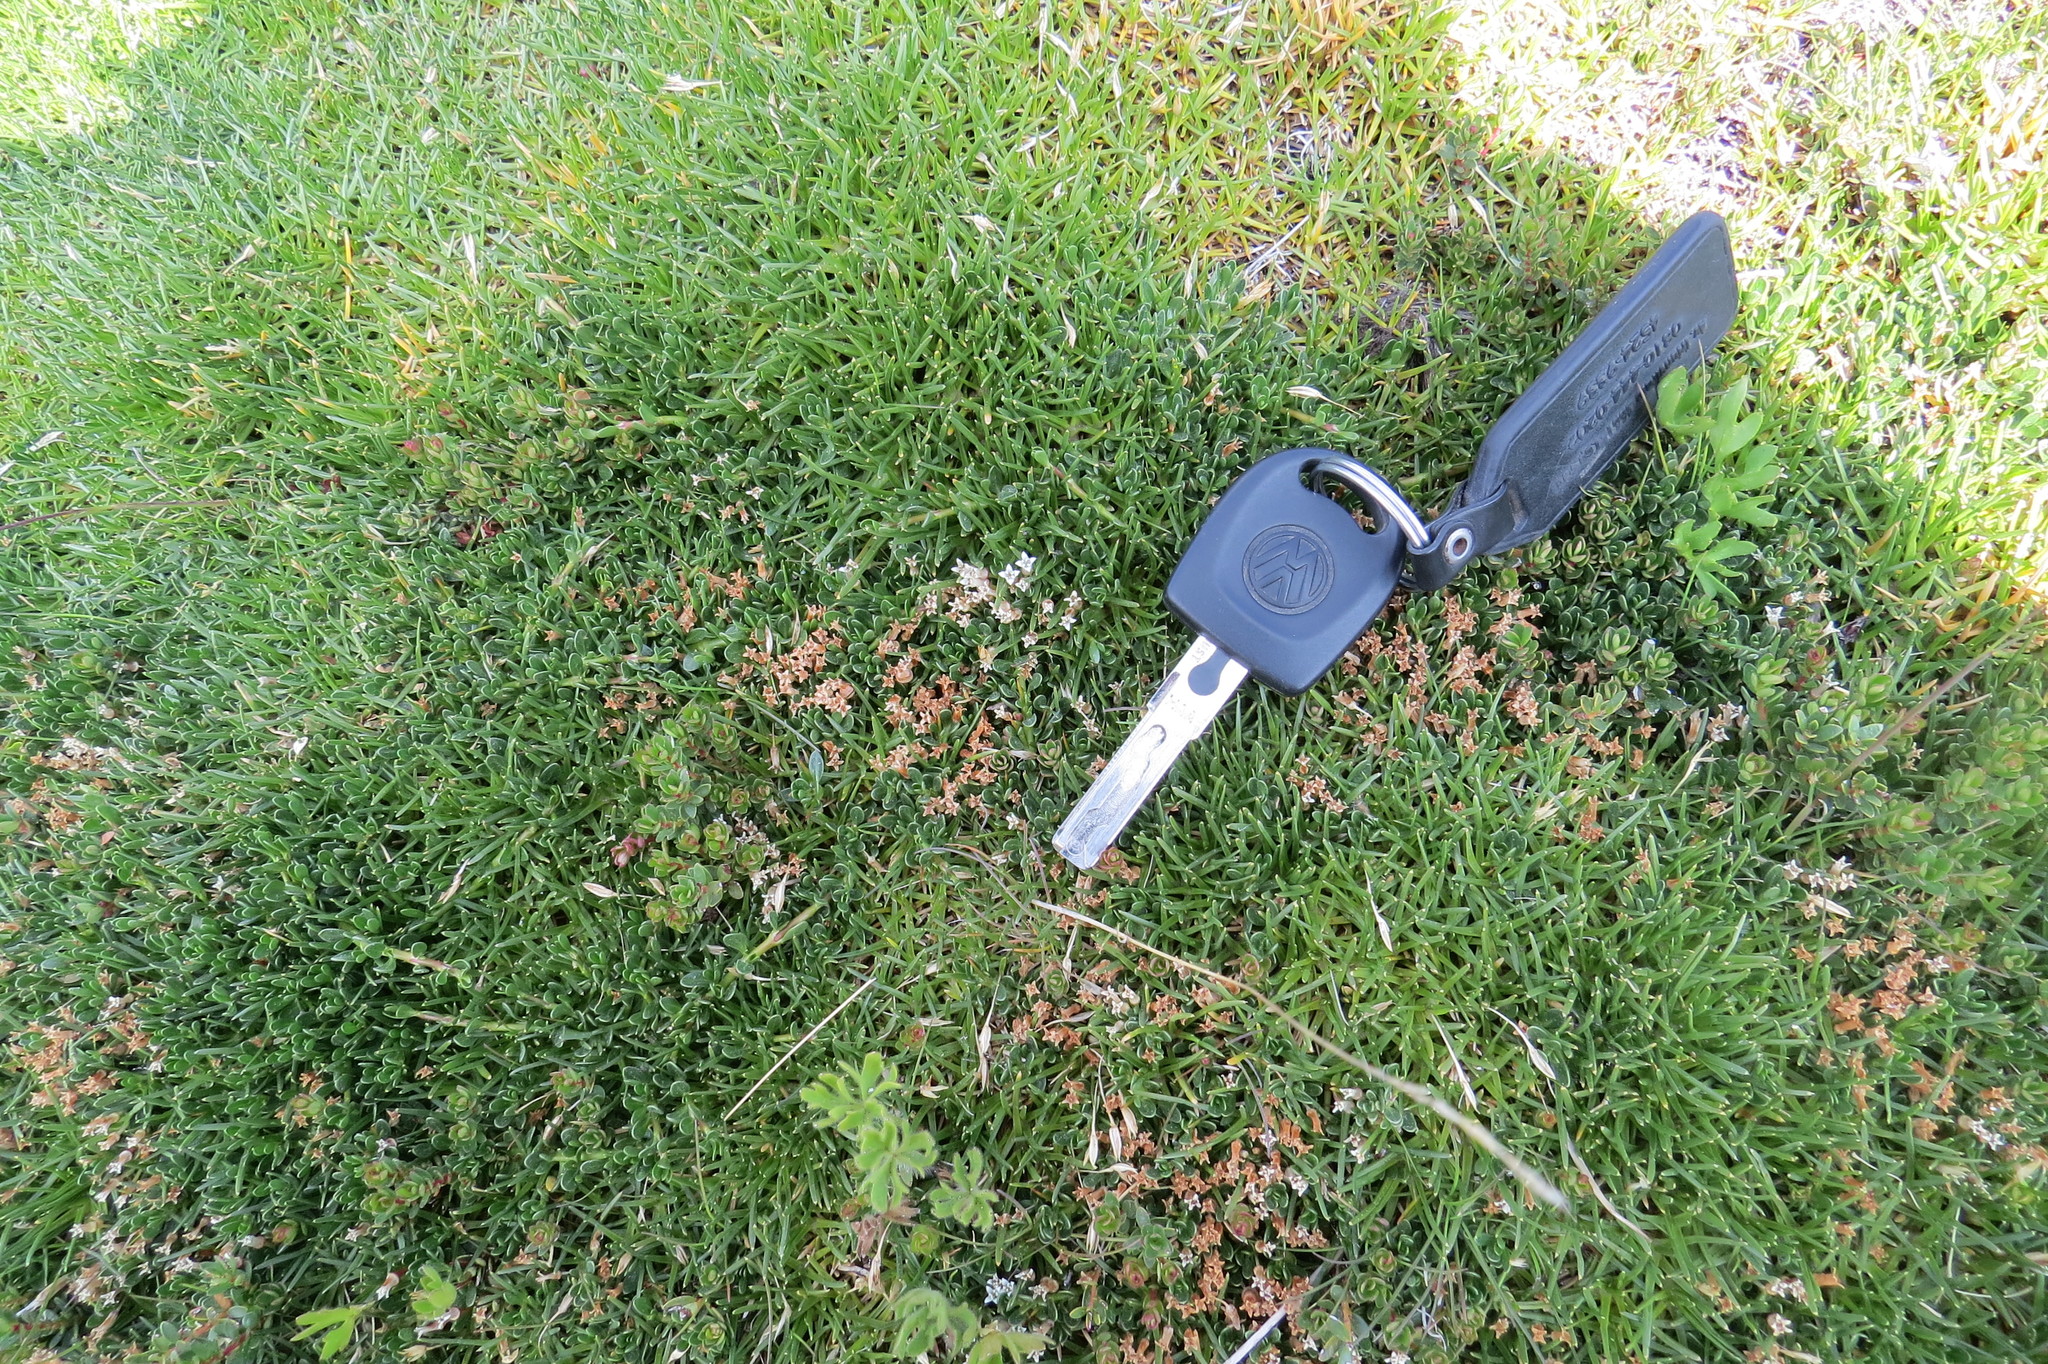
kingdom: Plantae
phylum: Tracheophyta
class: Magnoliopsida
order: Rosales
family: Rhamnaceae
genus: Discaria
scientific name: Discaria nana
